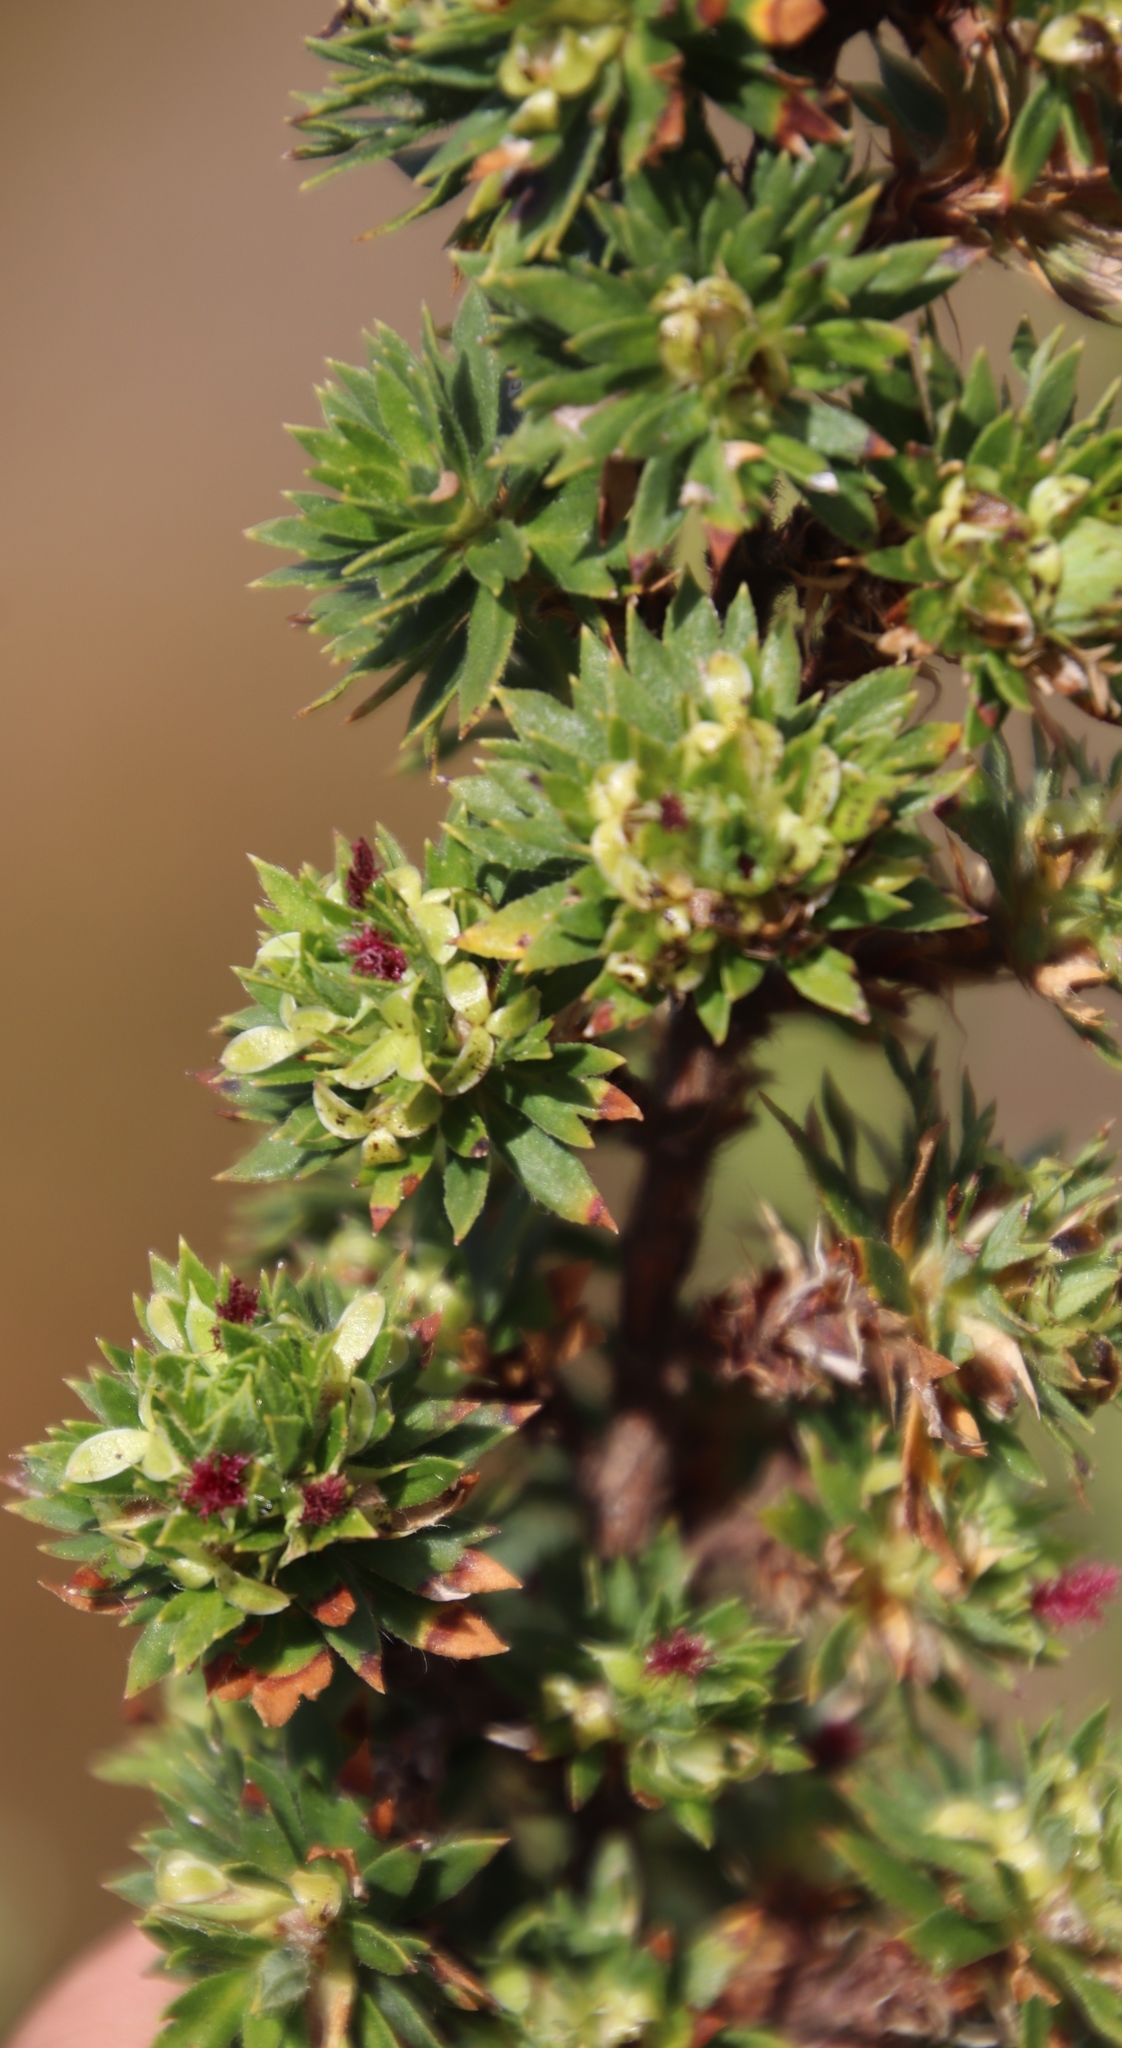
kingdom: Plantae
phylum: Tracheophyta
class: Magnoliopsida
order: Rosales
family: Rosaceae
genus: Cliffortia
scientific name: Cliffortia polygonifolia
